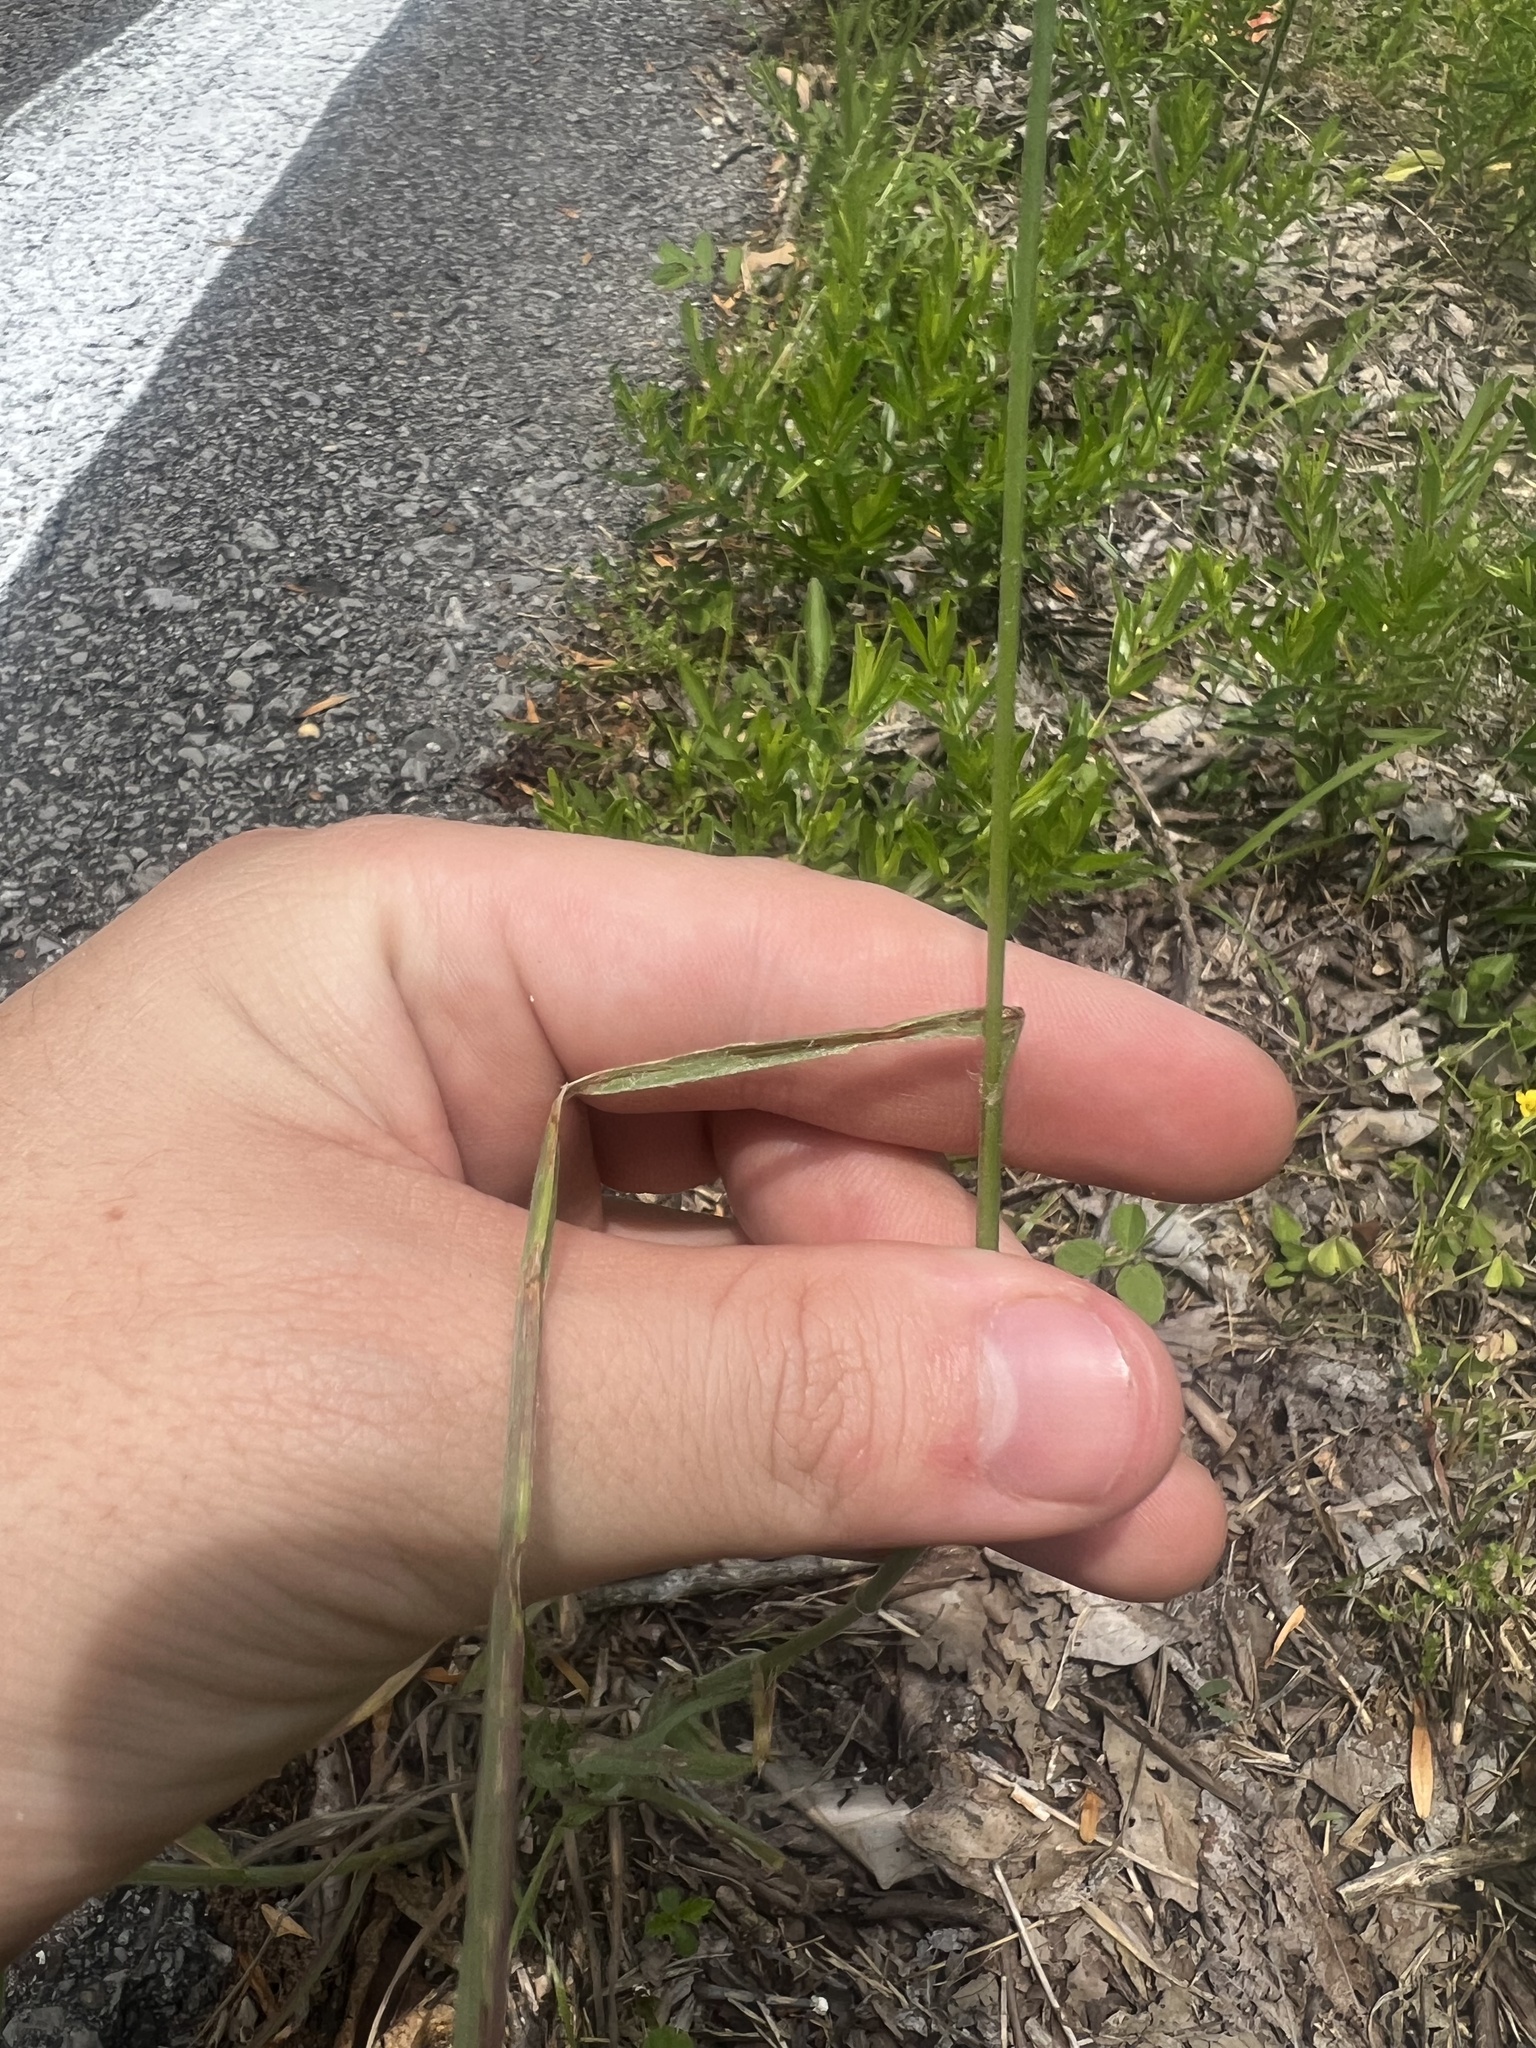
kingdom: Plantae
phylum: Tracheophyta
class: Liliopsida
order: Poales
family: Poaceae
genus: Bromus
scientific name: Bromus japonicus
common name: Japanese brome
